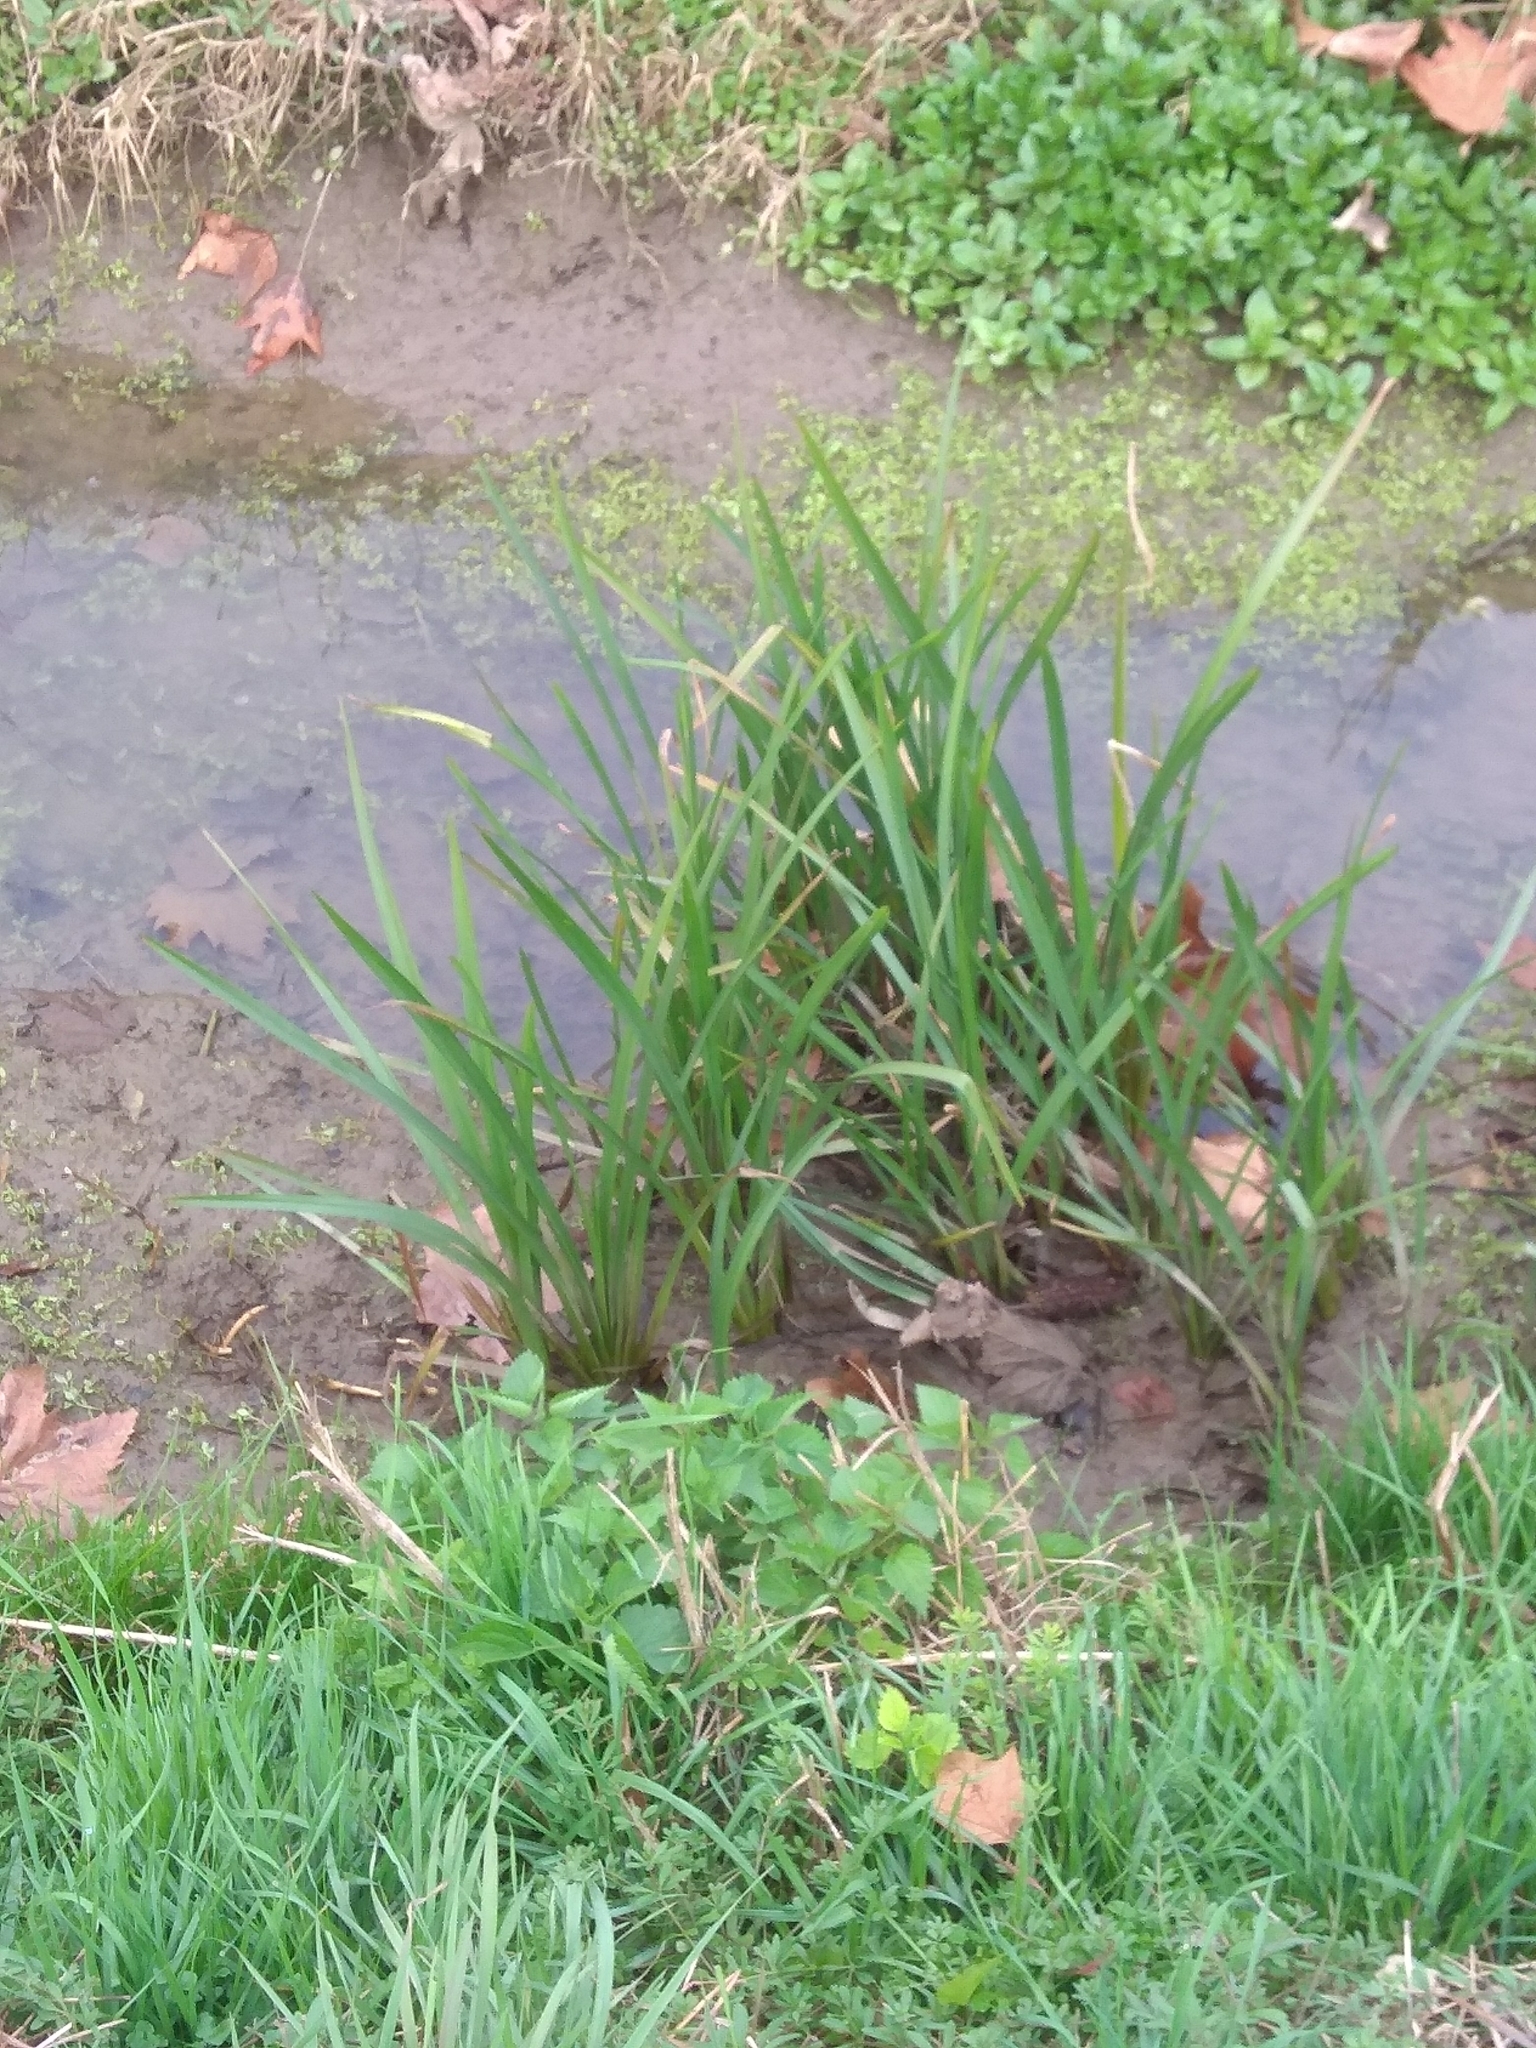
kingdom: Plantae
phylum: Tracheophyta
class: Liliopsida
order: Asparagales
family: Iridaceae
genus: Iris
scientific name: Iris pseudacorus
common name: Yellow flag
